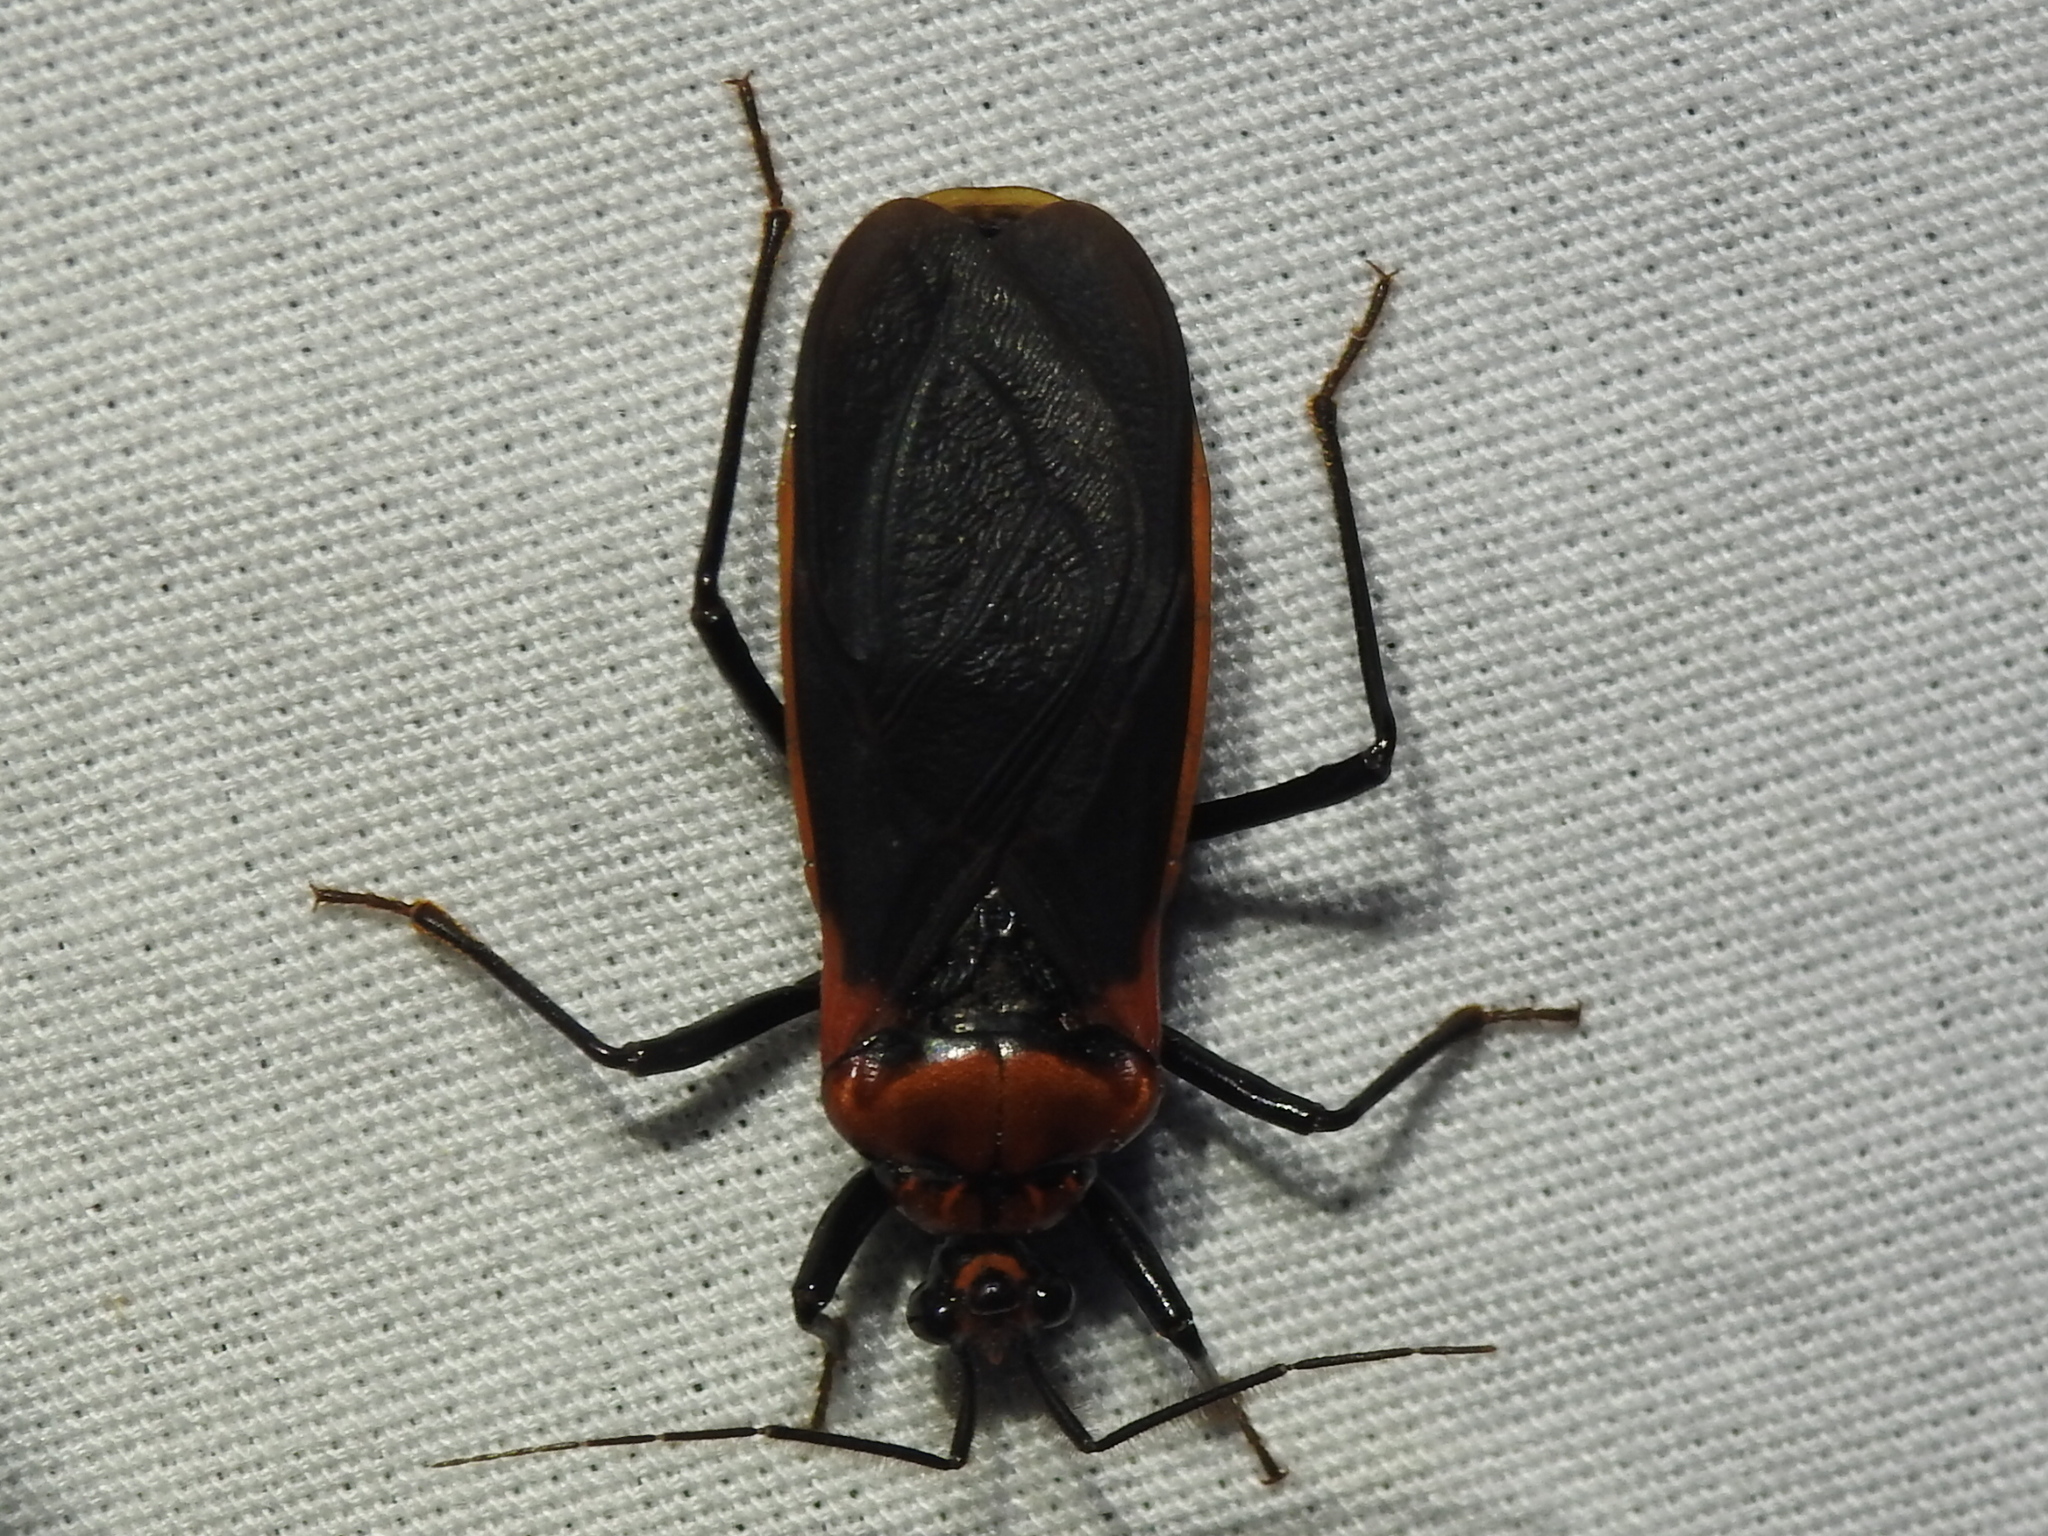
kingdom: Animalia
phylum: Arthropoda
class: Insecta
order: Hemiptera
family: Reduviidae
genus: Rhiginia
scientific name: Rhiginia cinctiventris
